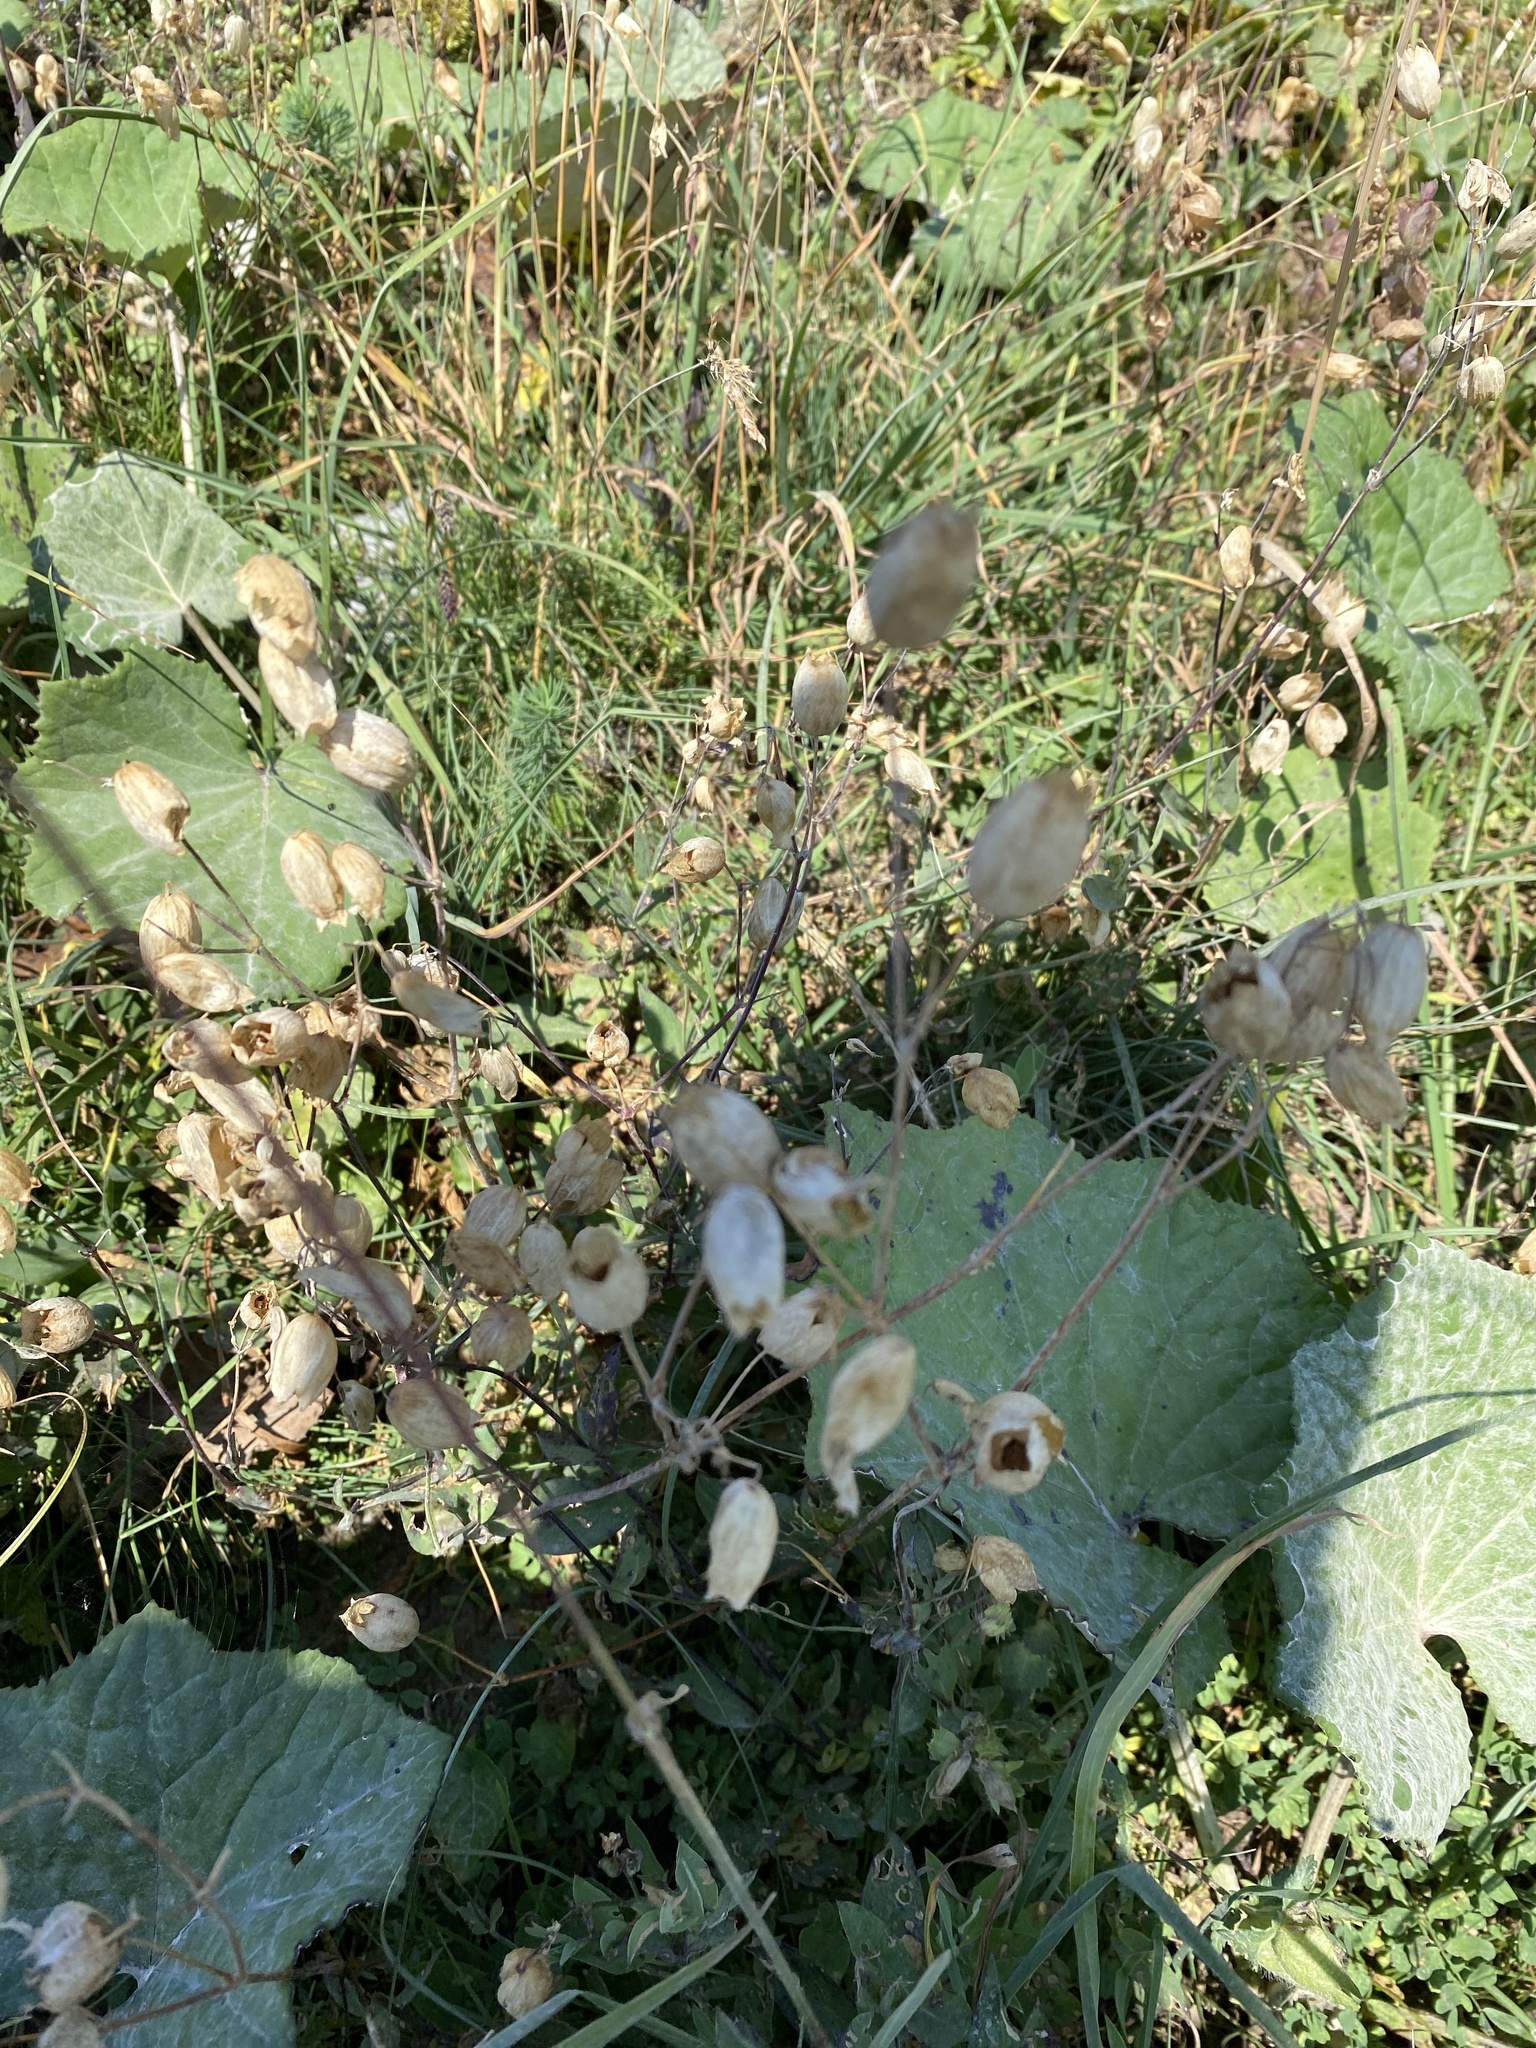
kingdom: Plantae
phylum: Tracheophyta
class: Magnoliopsida
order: Caryophyllales
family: Caryophyllaceae
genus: Silene
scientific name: Silene vulgaris
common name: Bladder campion
